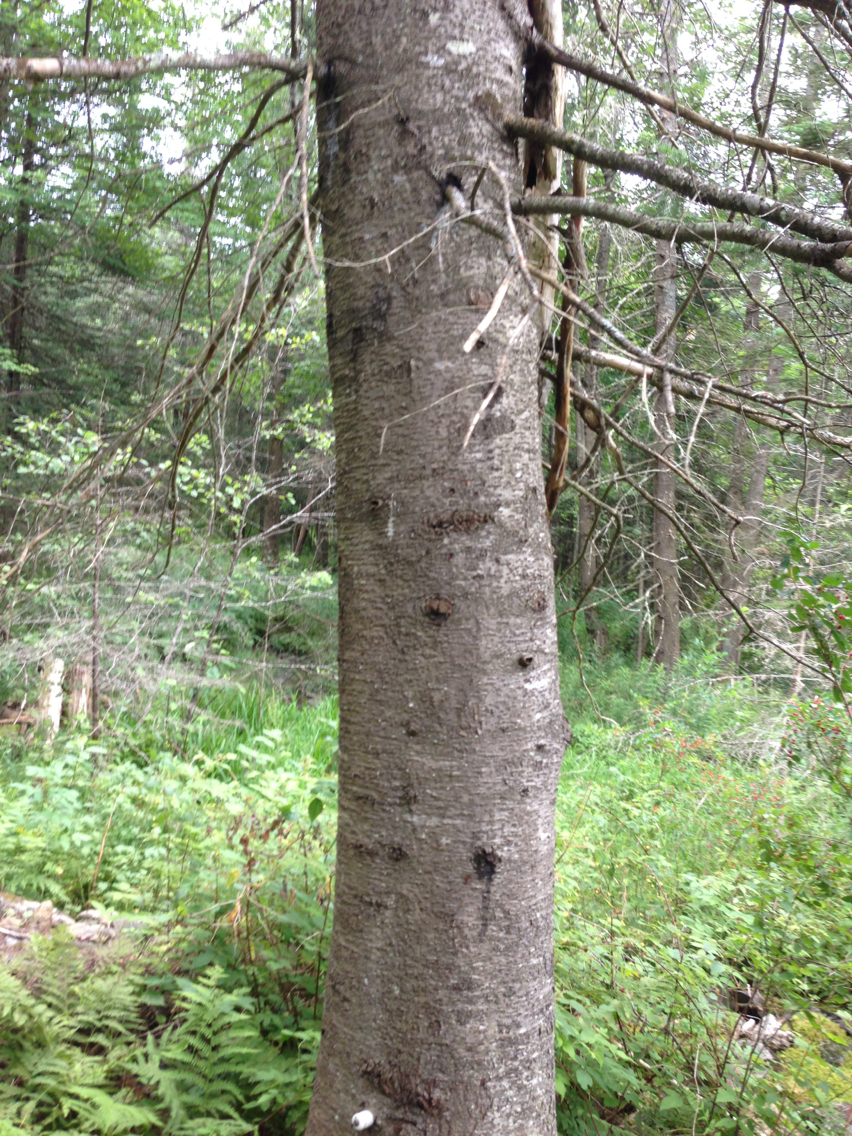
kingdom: Plantae
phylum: Tracheophyta
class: Pinopsida
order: Pinales
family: Pinaceae
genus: Abies
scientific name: Abies balsamea
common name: Balsam fir
